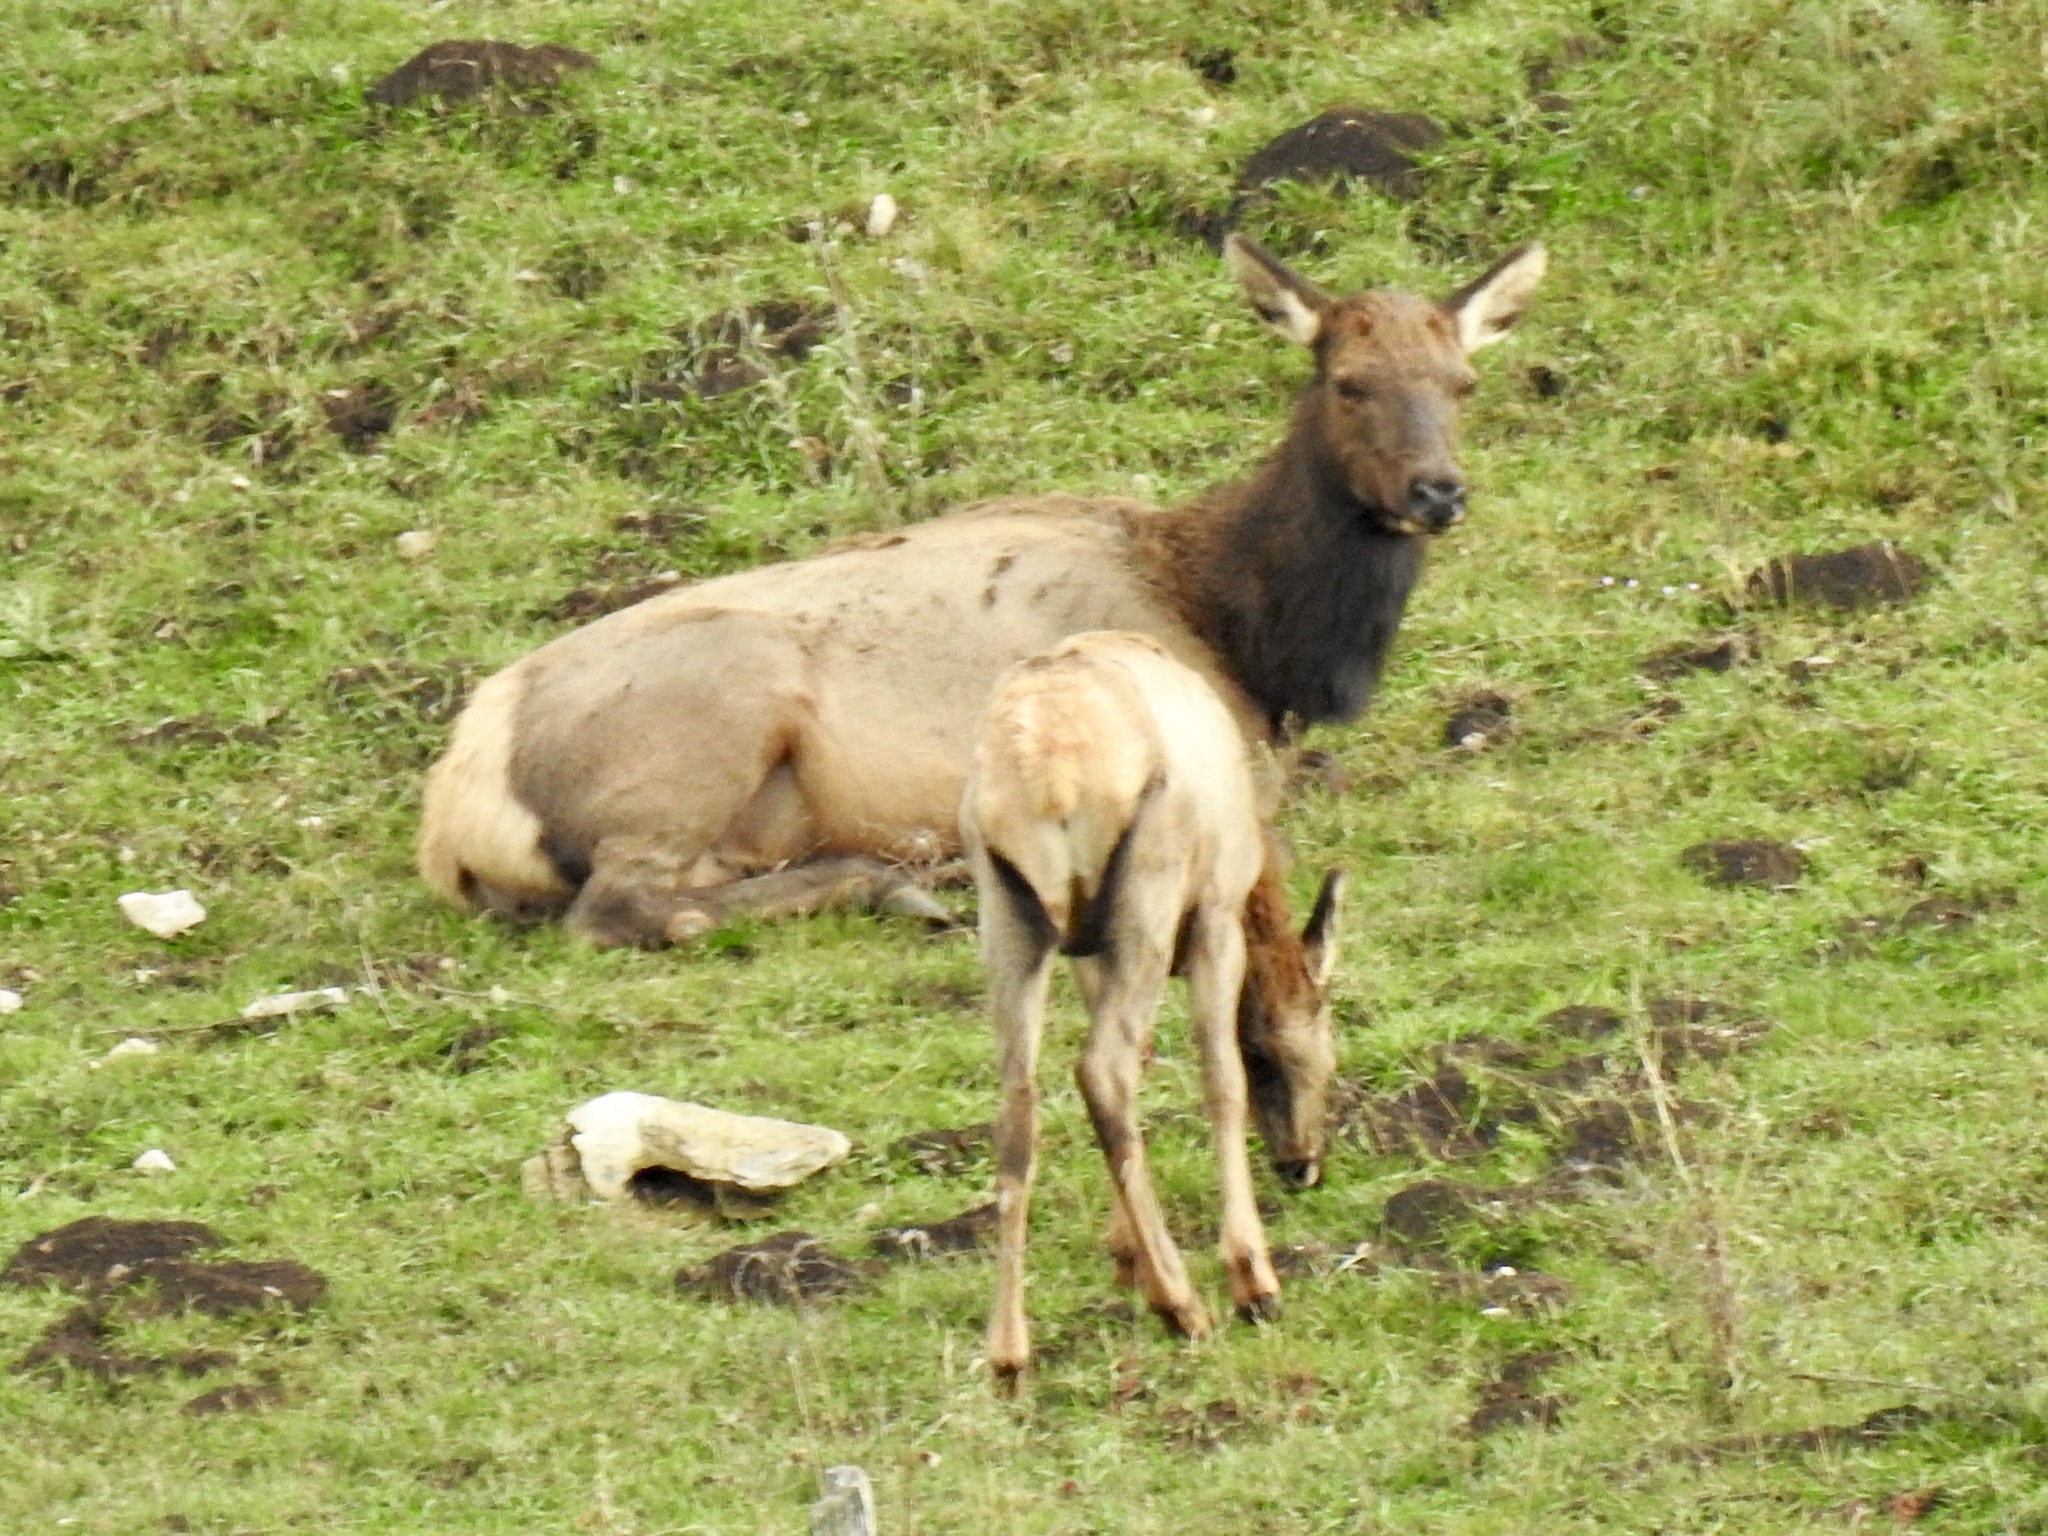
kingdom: Animalia
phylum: Chordata
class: Mammalia
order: Artiodactyla
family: Cervidae
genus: Cervus
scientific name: Cervus elaphus
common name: Red deer
